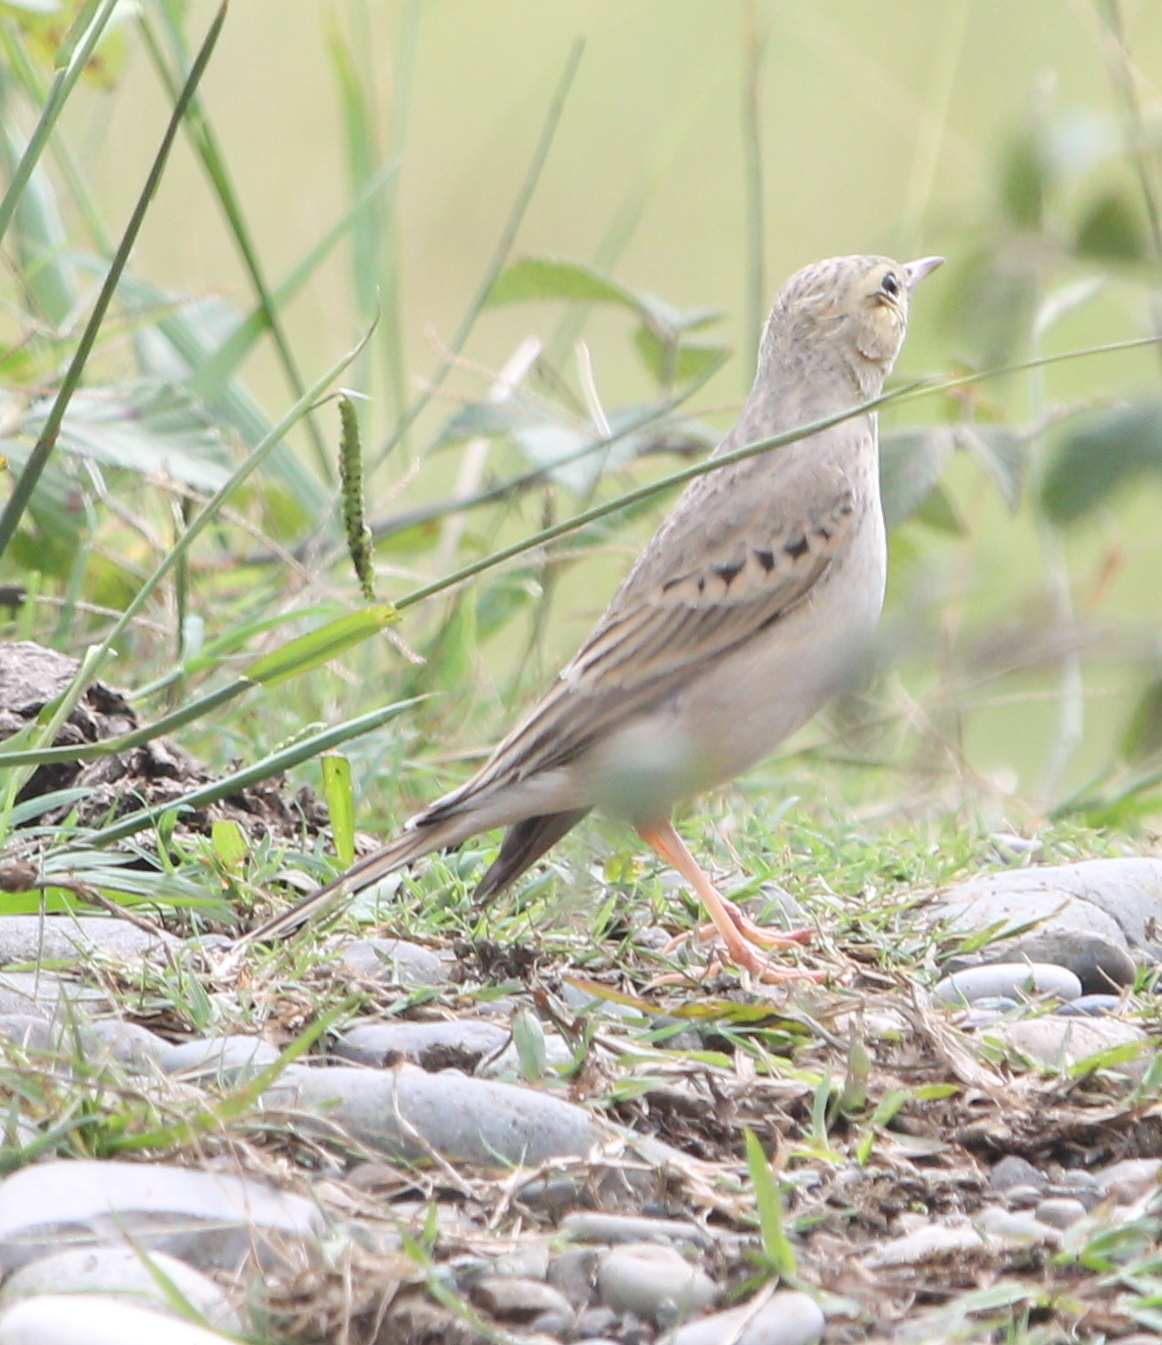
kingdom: Animalia
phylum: Chordata
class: Aves
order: Passeriformes
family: Motacillidae
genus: Anthus
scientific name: Anthus campestris
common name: Tawny pipit
